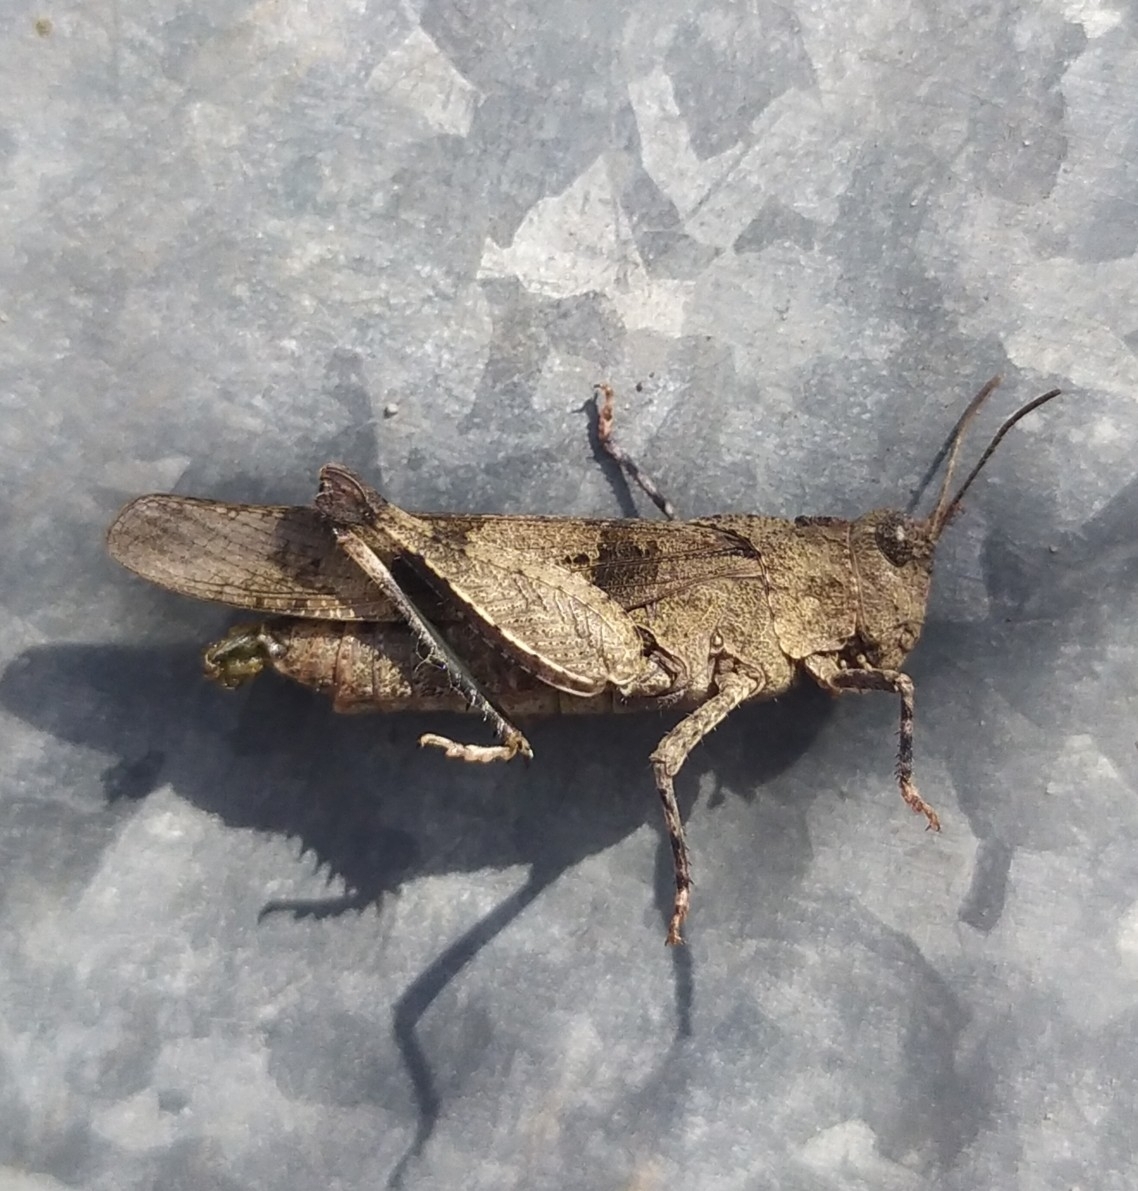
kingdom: Animalia
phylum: Arthropoda
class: Insecta
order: Orthoptera
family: Acrididae
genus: Oedipoda
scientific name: Oedipoda caerulescens
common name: Blue-winged grasshopper
